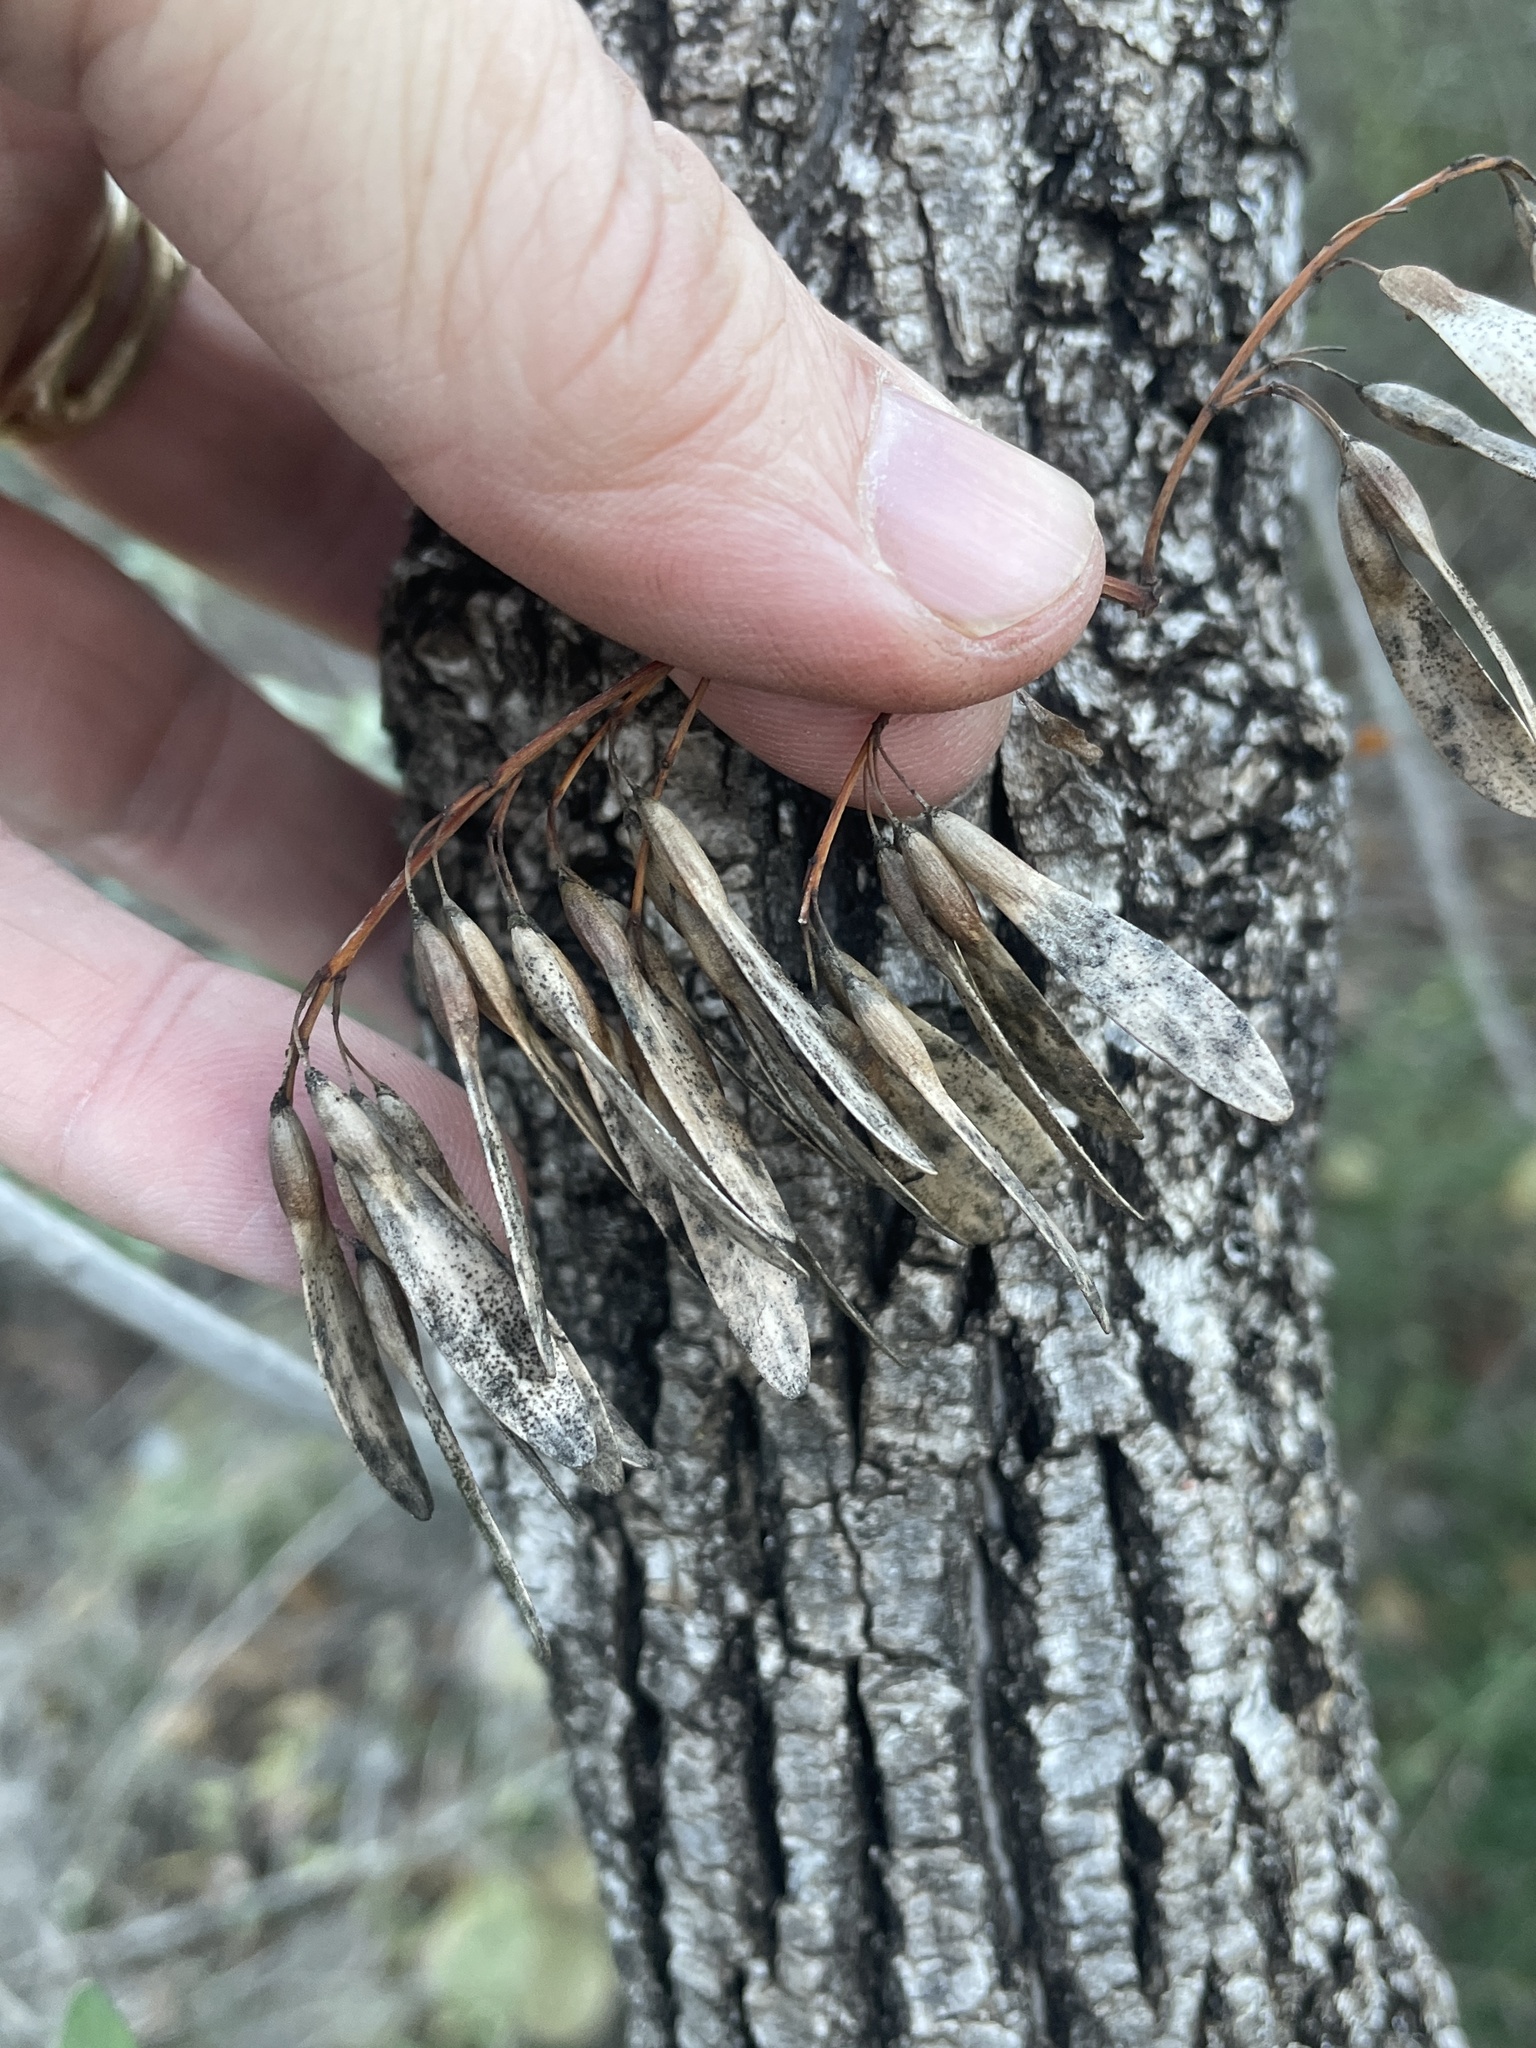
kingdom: Plantae
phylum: Tracheophyta
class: Magnoliopsida
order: Lamiales
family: Oleaceae
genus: Fraxinus
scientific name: Fraxinus albicans
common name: Texas ash
